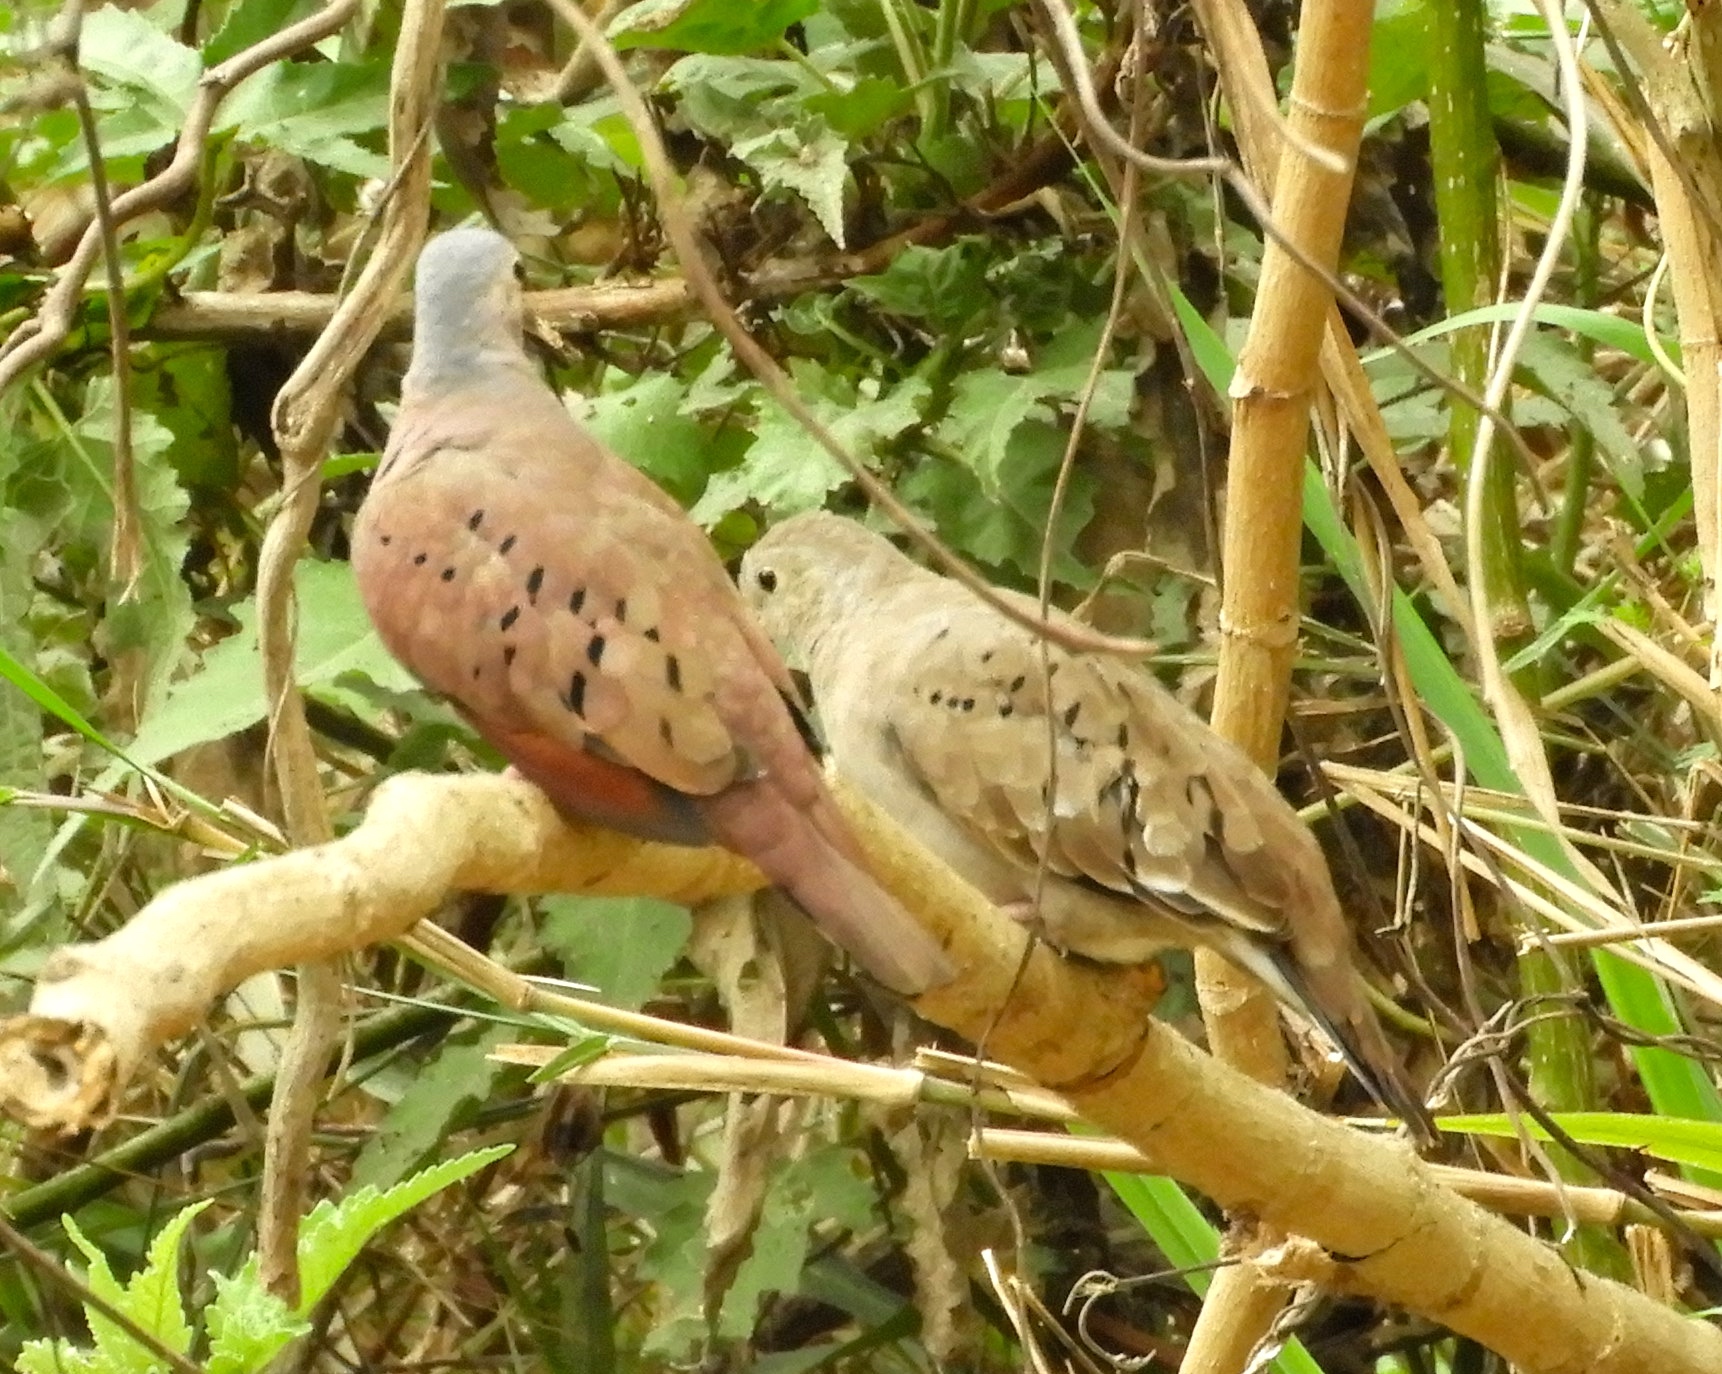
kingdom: Animalia
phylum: Chordata
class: Aves
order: Columbiformes
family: Columbidae
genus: Columbina
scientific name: Columbina talpacoti
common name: Ruddy ground dove
